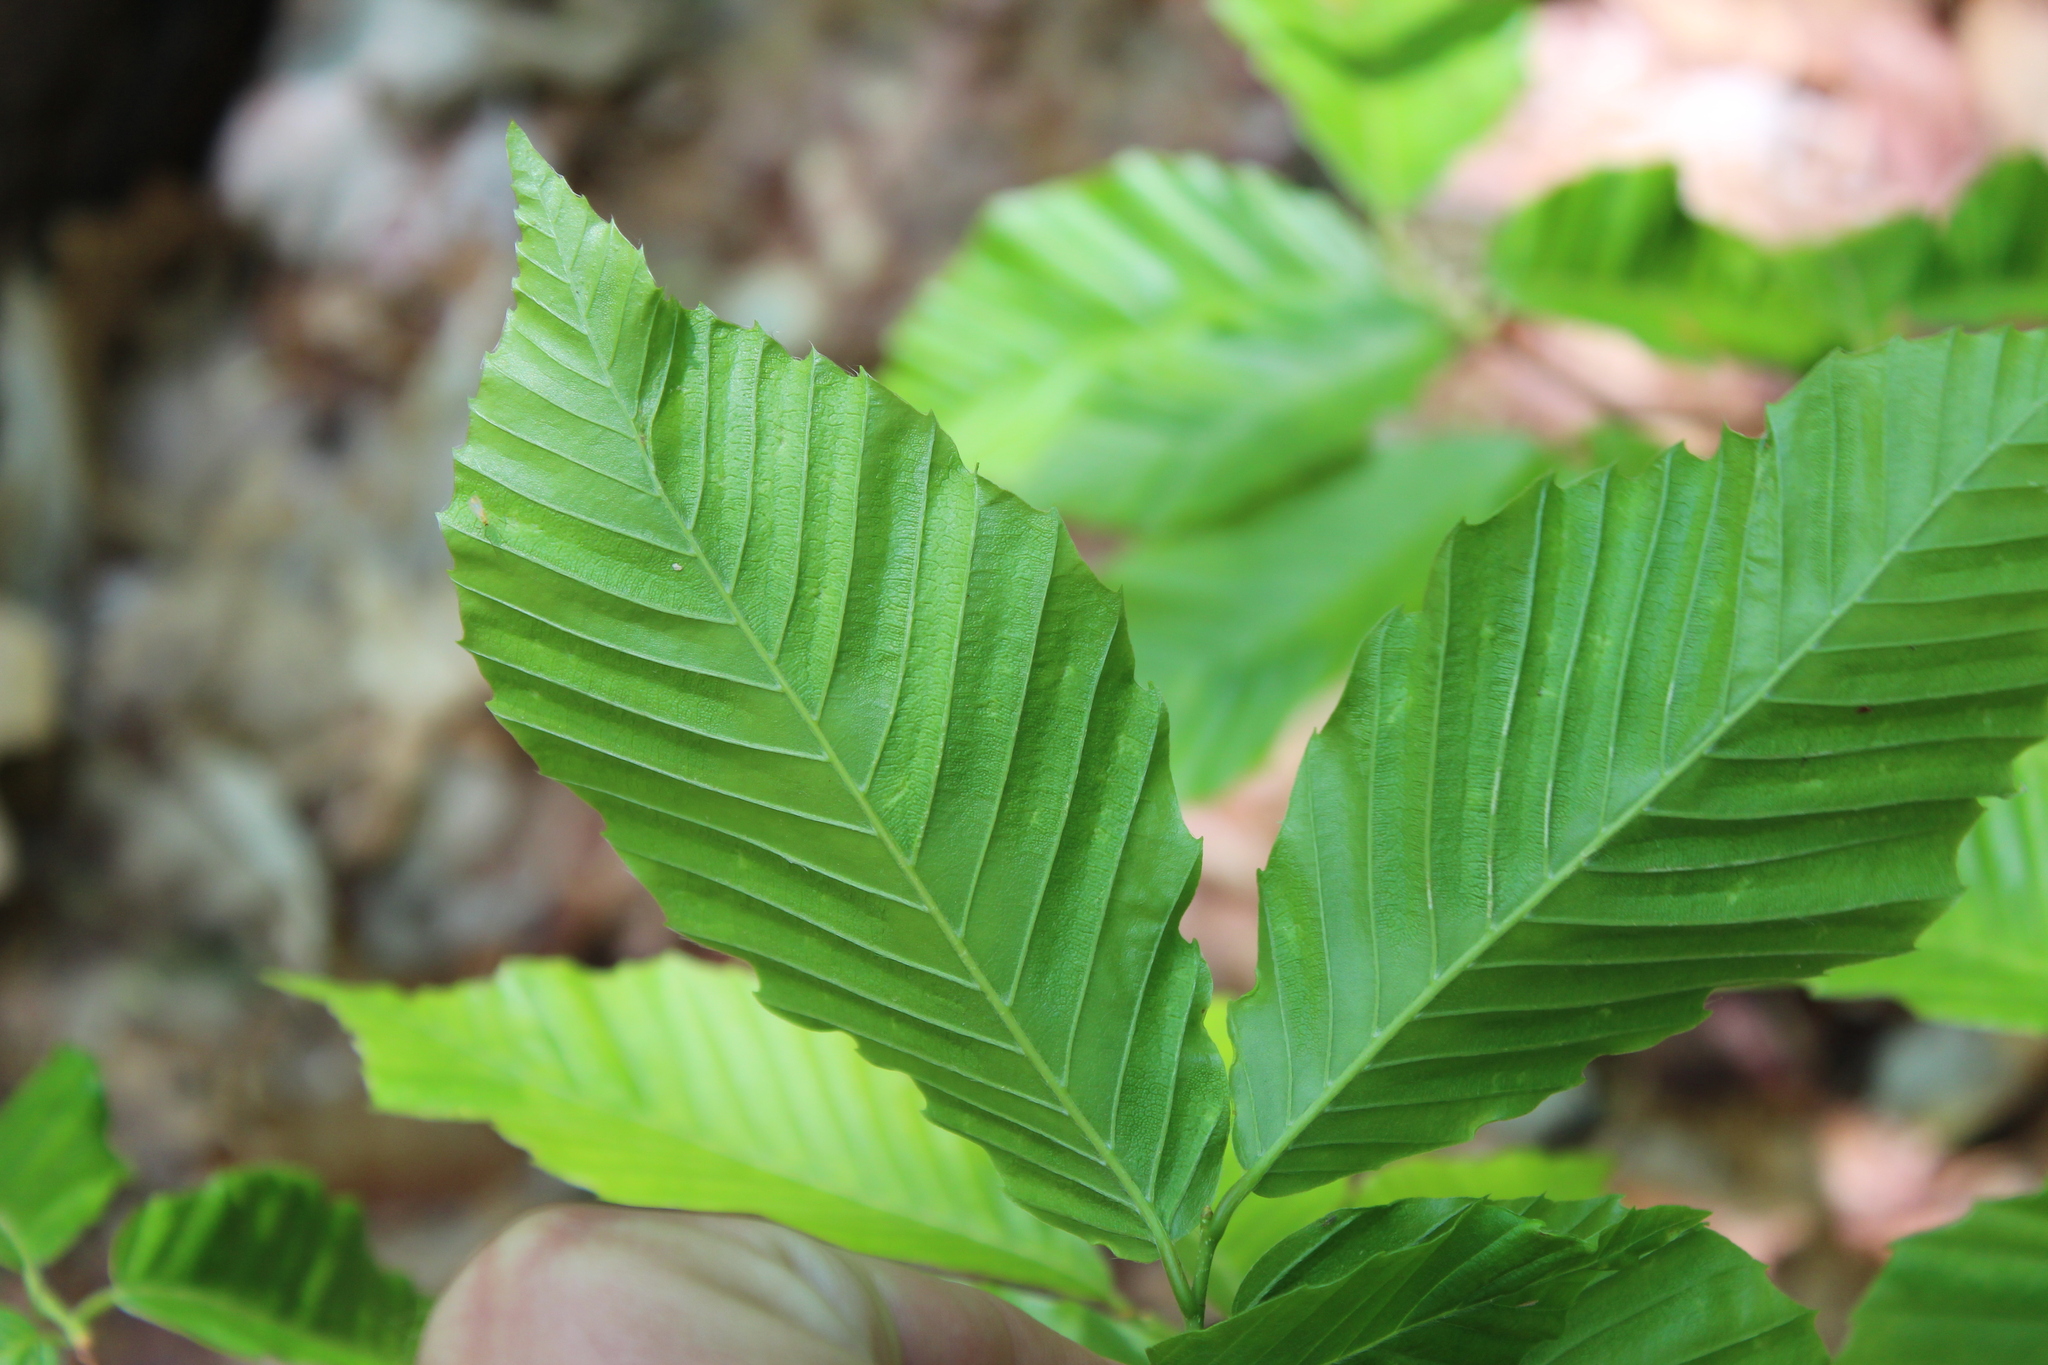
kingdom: Plantae
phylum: Tracheophyta
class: Magnoliopsida
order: Fagales
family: Fagaceae
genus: Fagus
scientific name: Fagus grandifolia
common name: American beech
